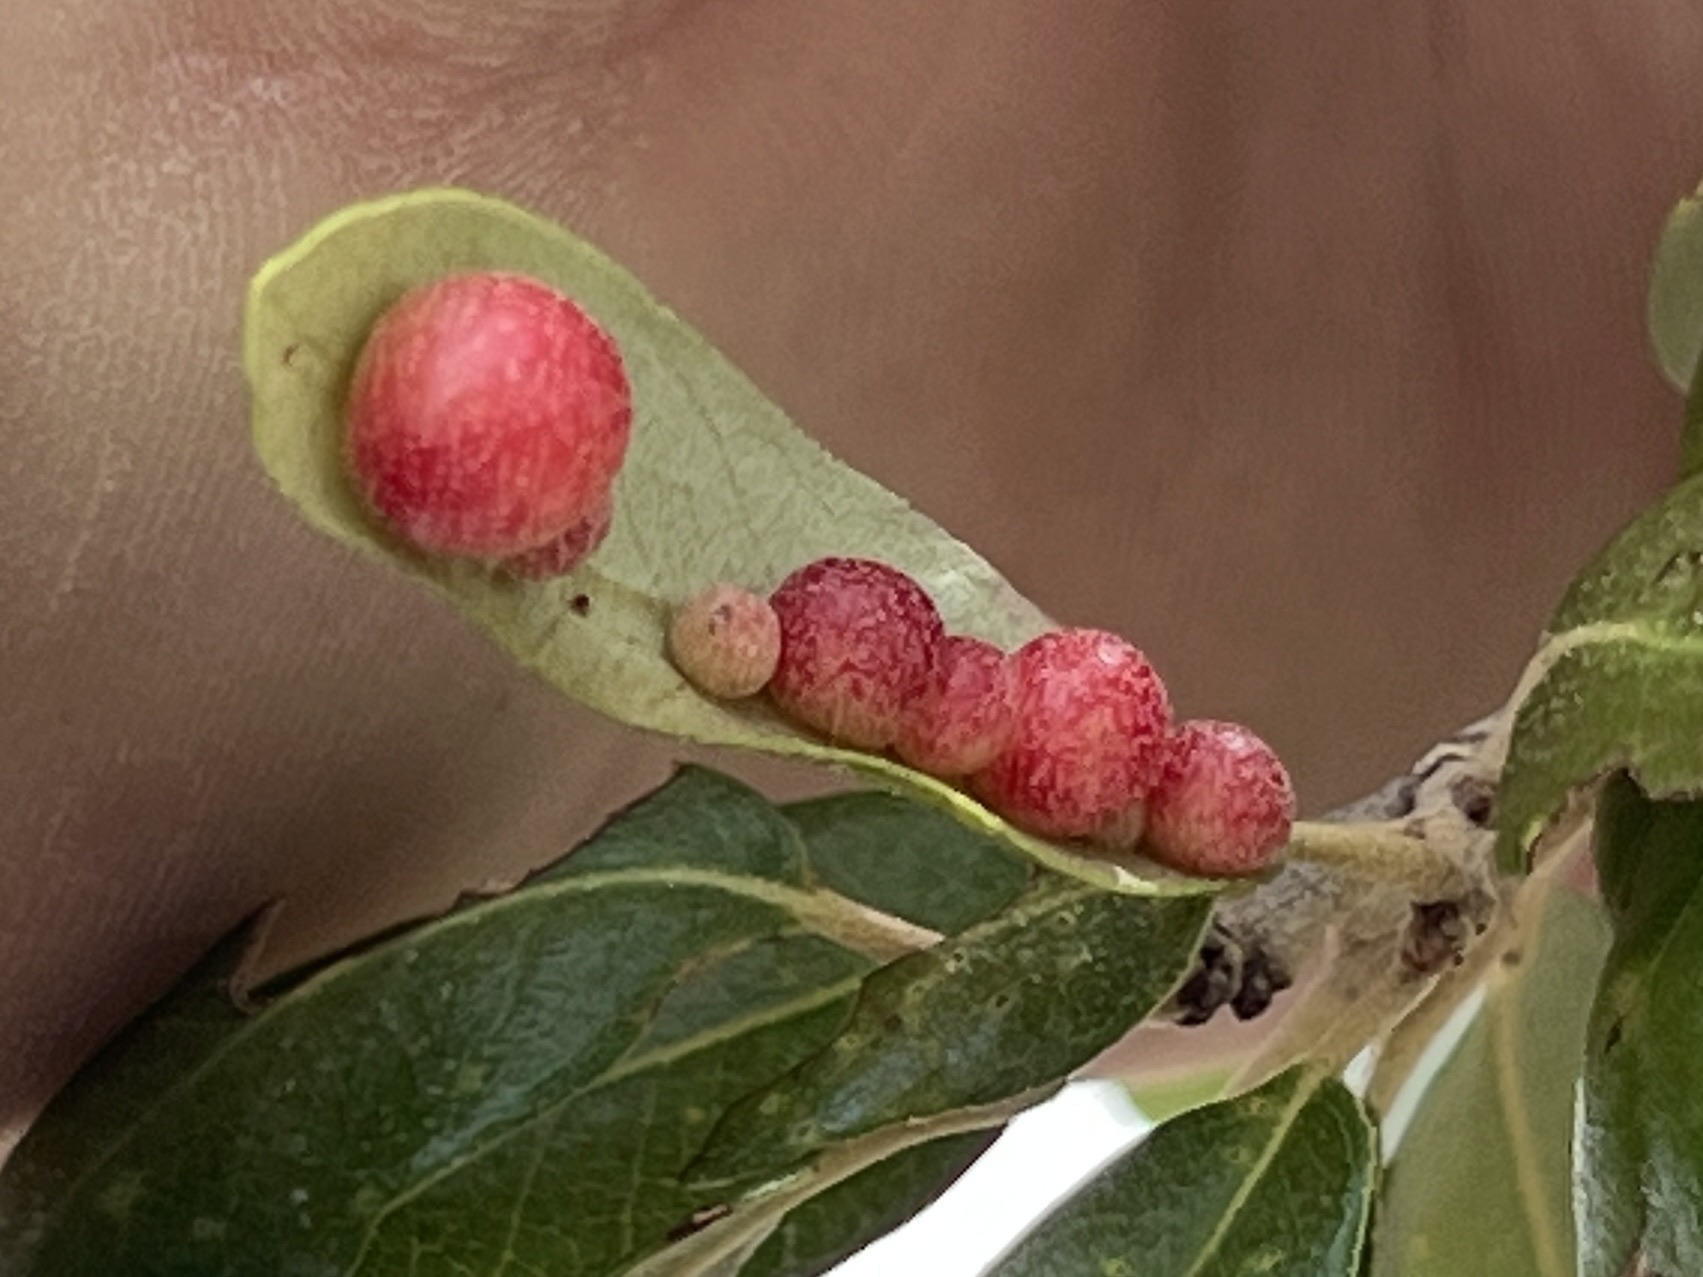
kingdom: Animalia
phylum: Arthropoda
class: Insecta
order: Hymenoptera
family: Cynipidae
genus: Belonocnema
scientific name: Belonocnema kinseyi
